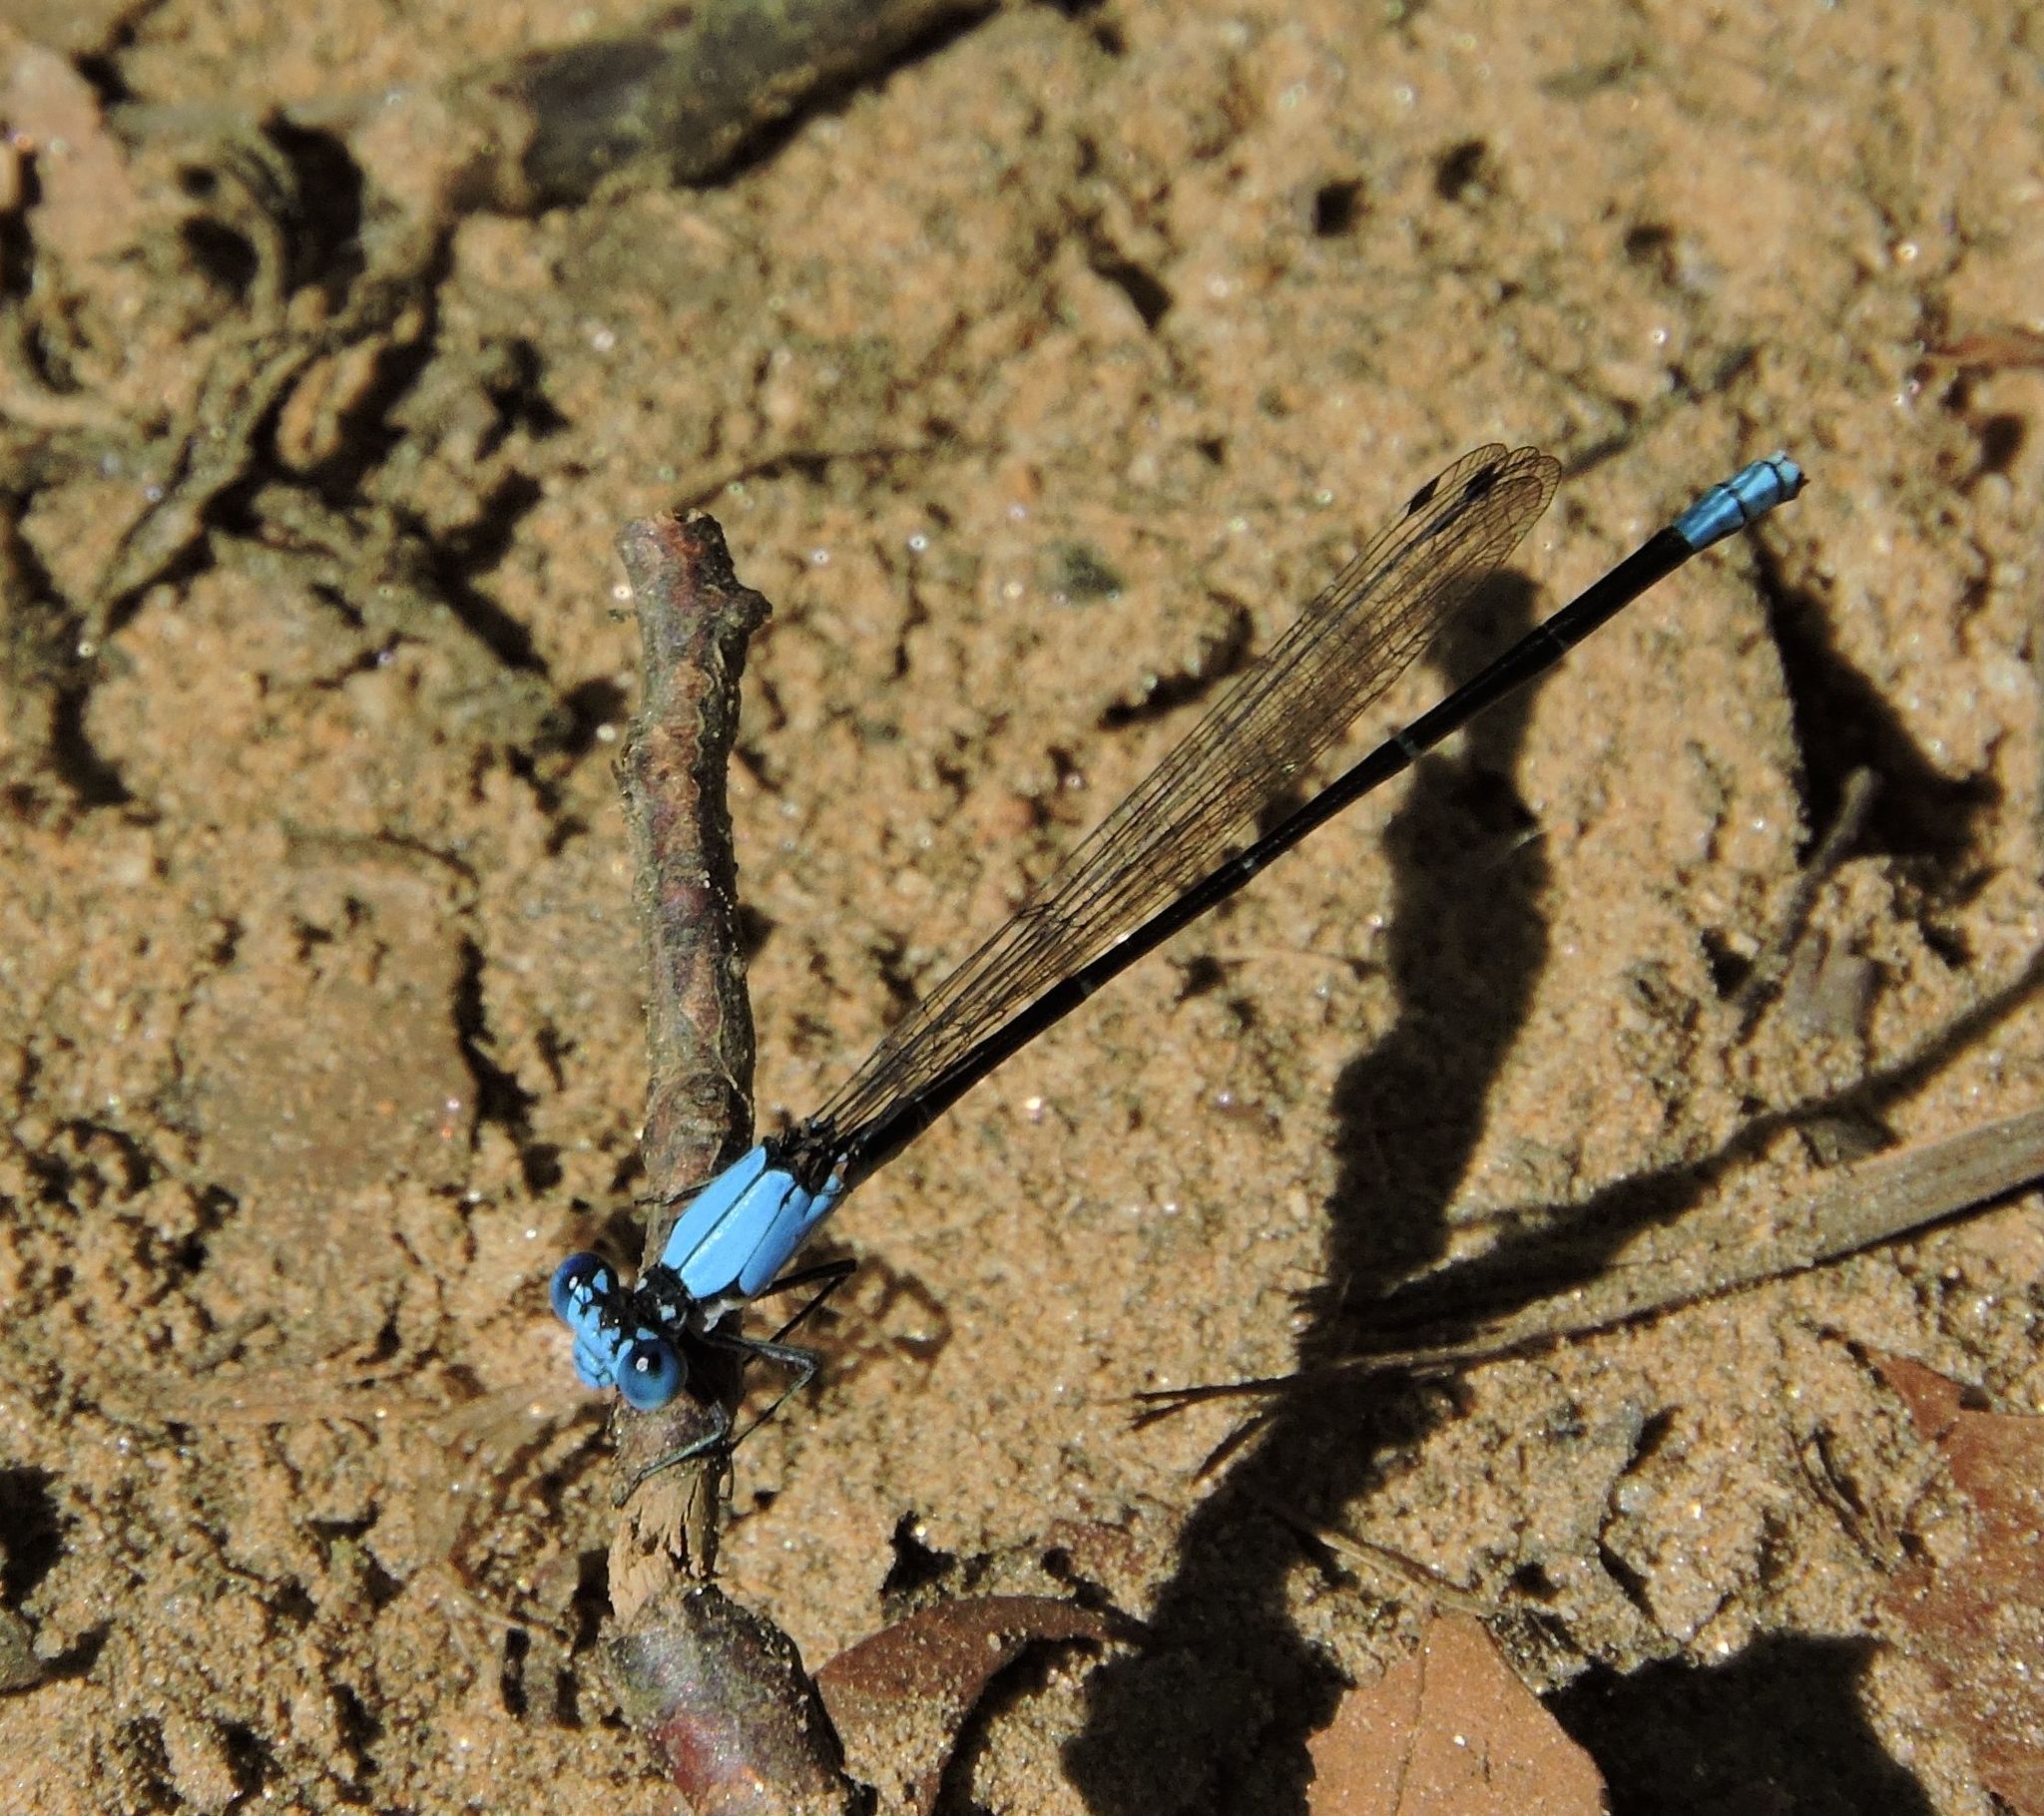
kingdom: Animalia
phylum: Arthropoda
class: Insecta
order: Odonata
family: Coenagrionidae
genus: Argia
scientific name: Argia apicalis
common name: Blue-fronted dancer
